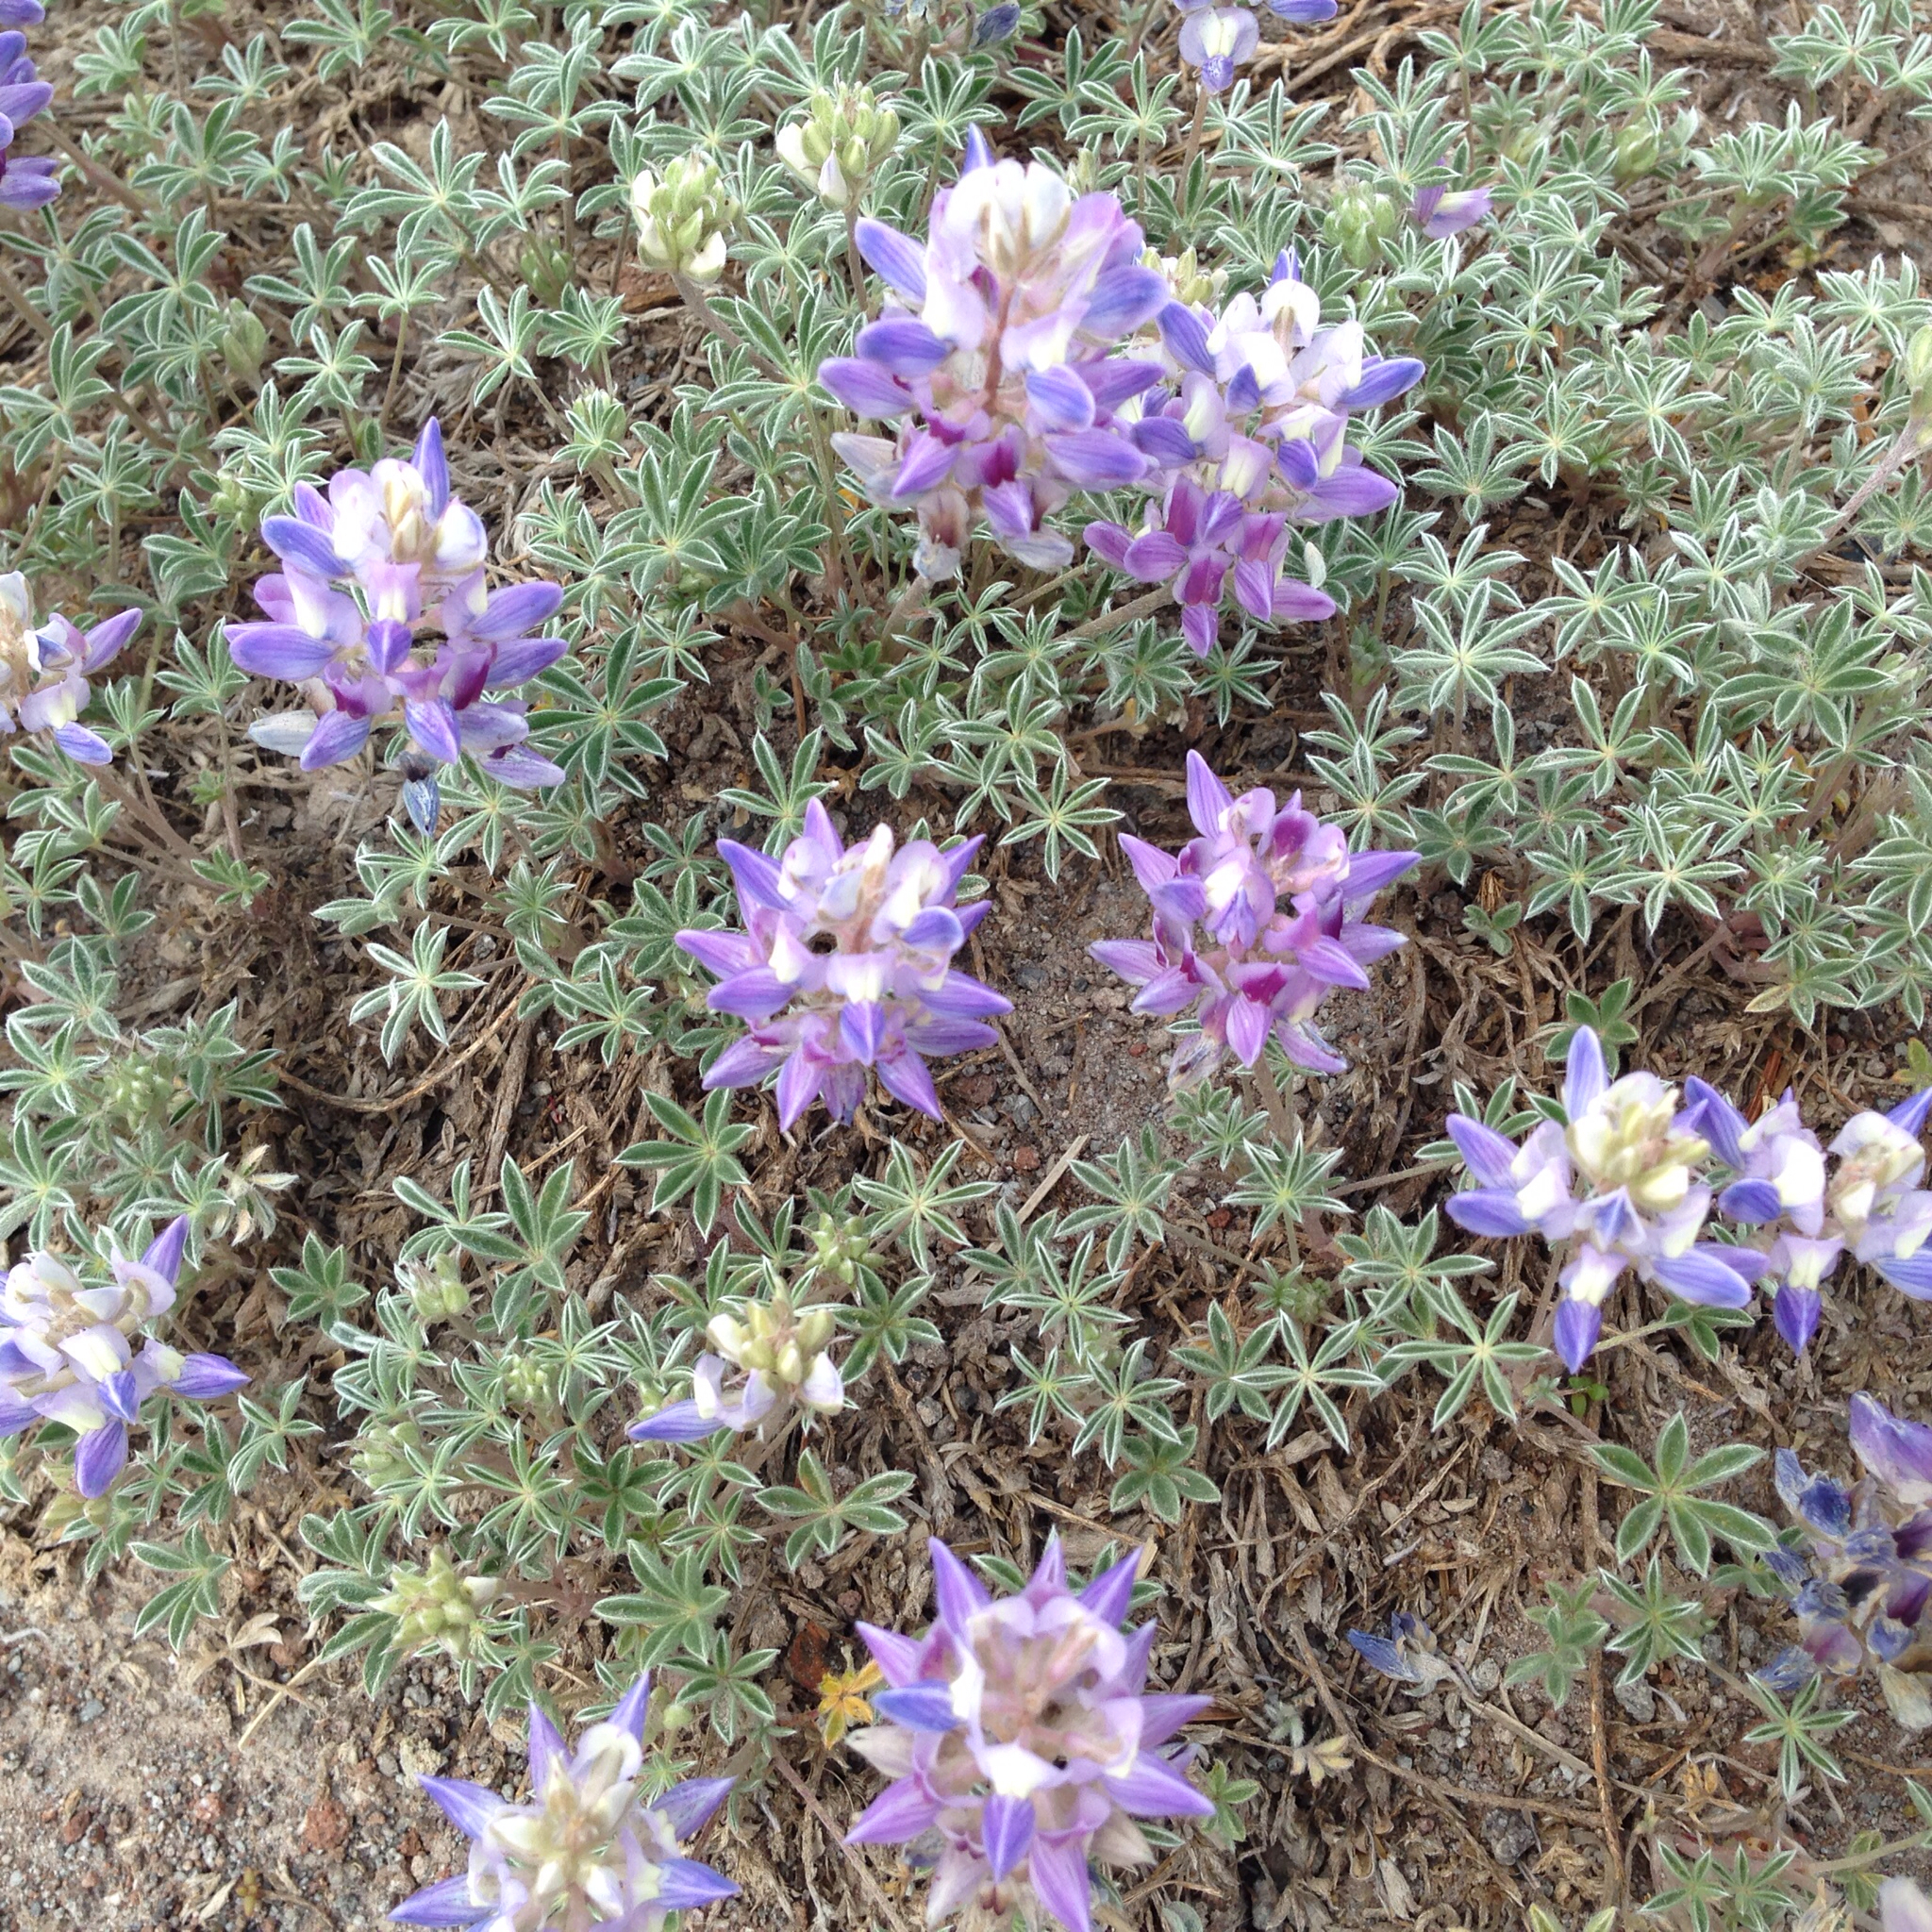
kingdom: Plantae
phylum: Tracheophyta
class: Magnoliopsida
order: Fabales
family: Fabaceae
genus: Lupinus
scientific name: Lupinus sellulus
